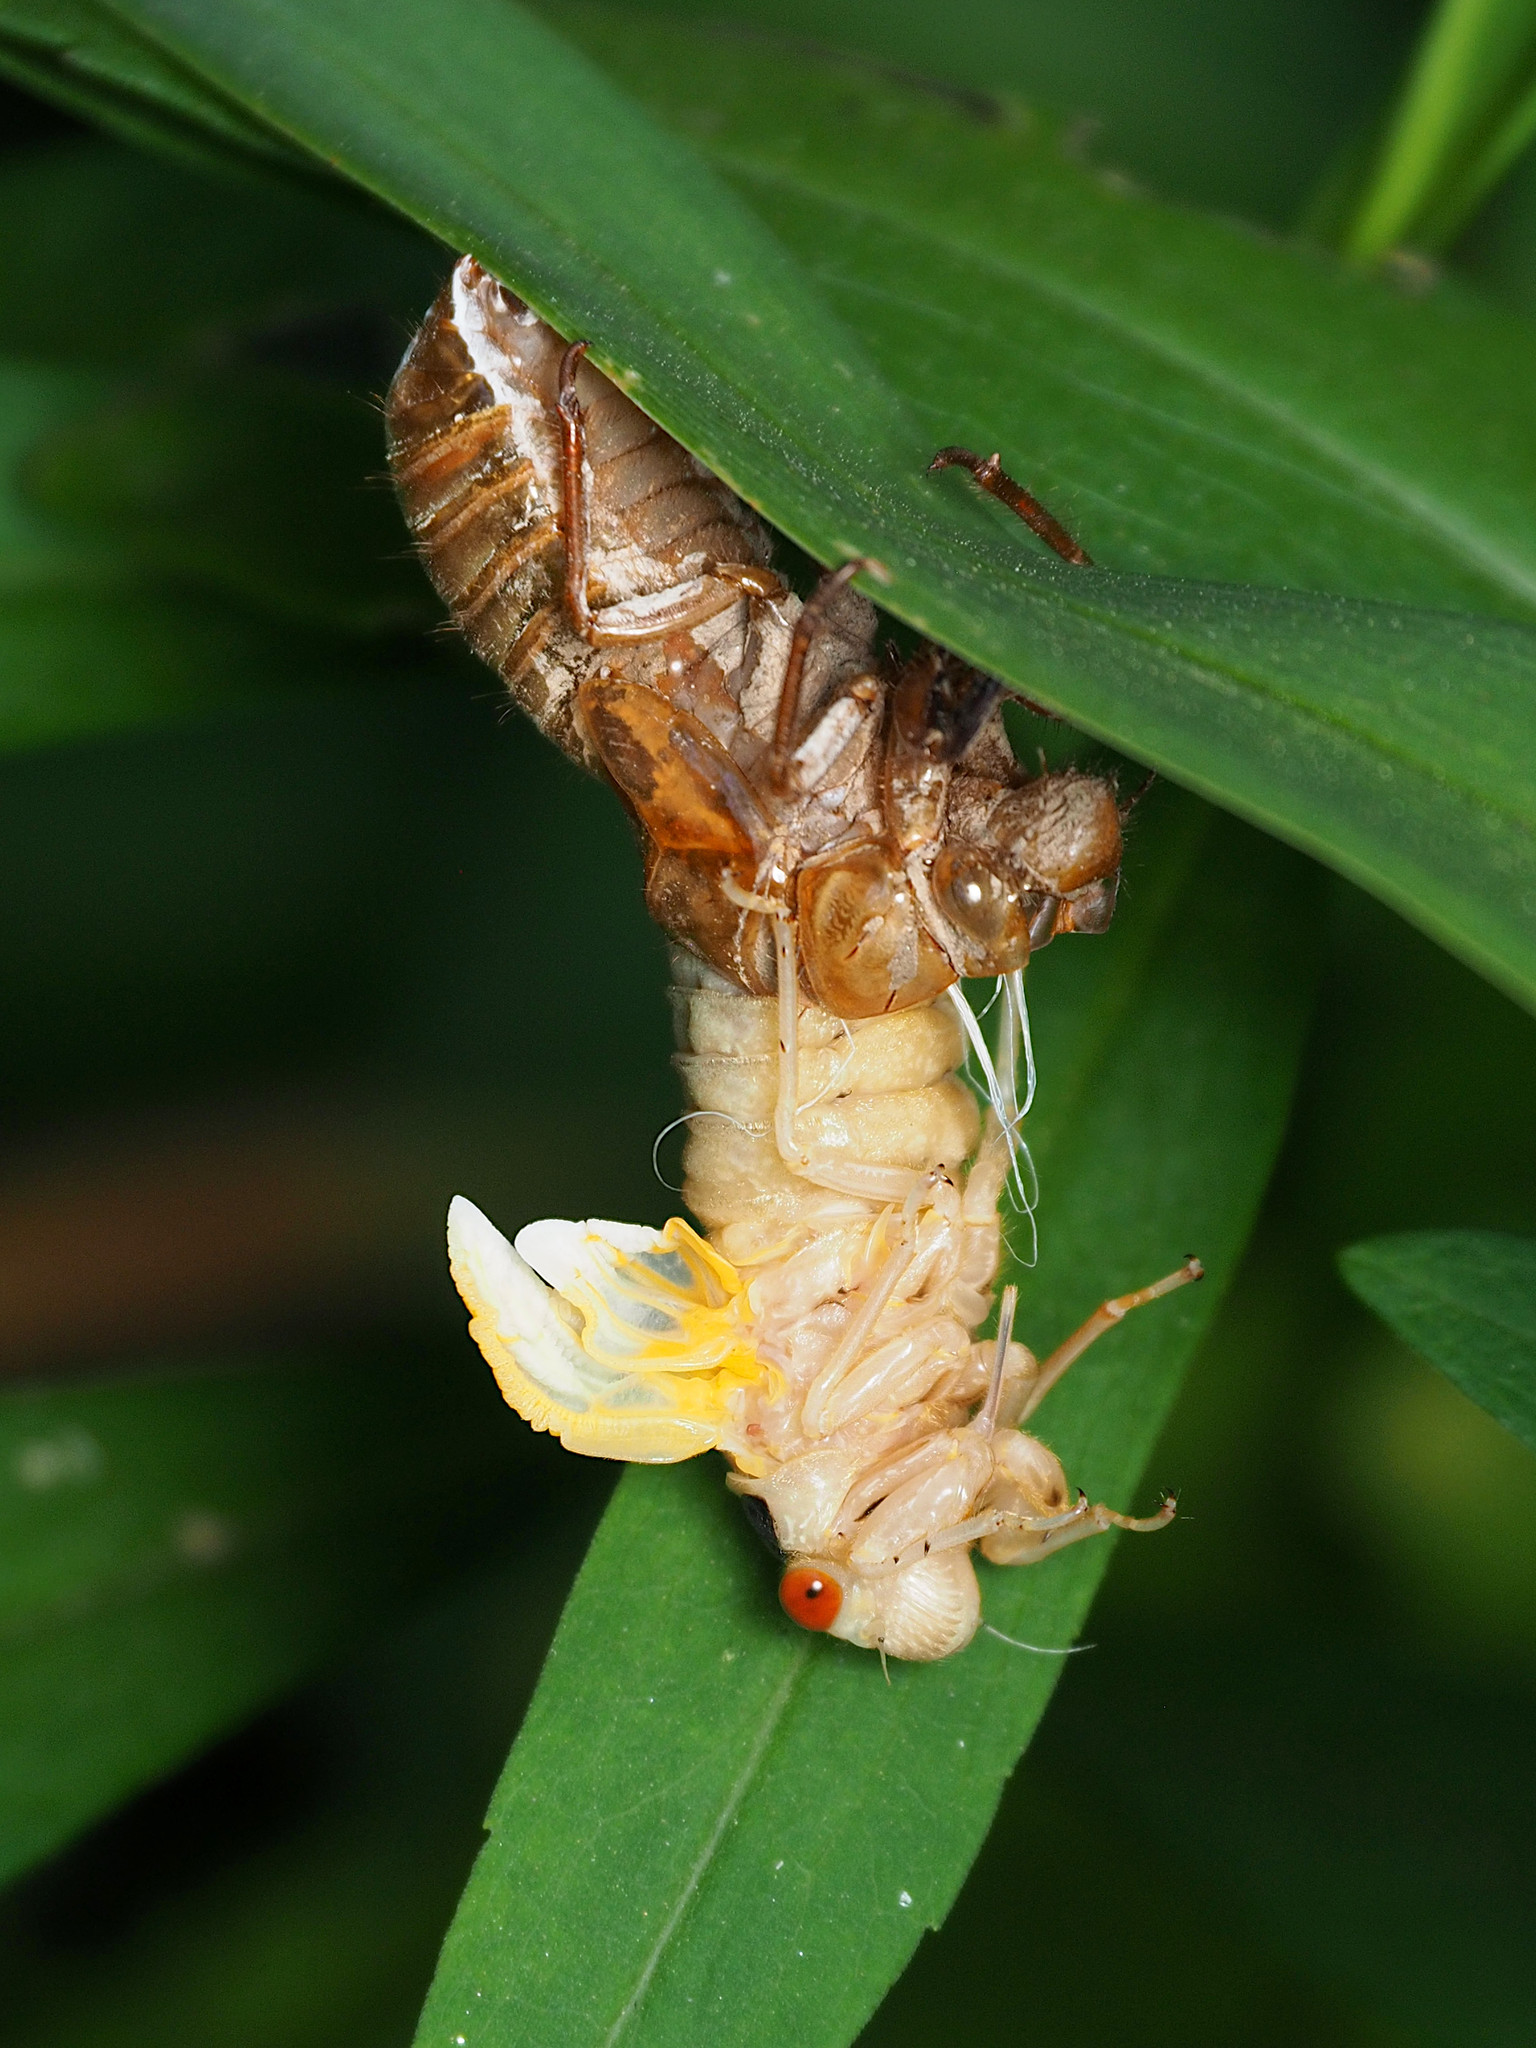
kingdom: Animalia
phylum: Arthropoda
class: Insecta
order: Hemiptera
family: Cicadidae
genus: Magicicada
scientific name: Magicicada
